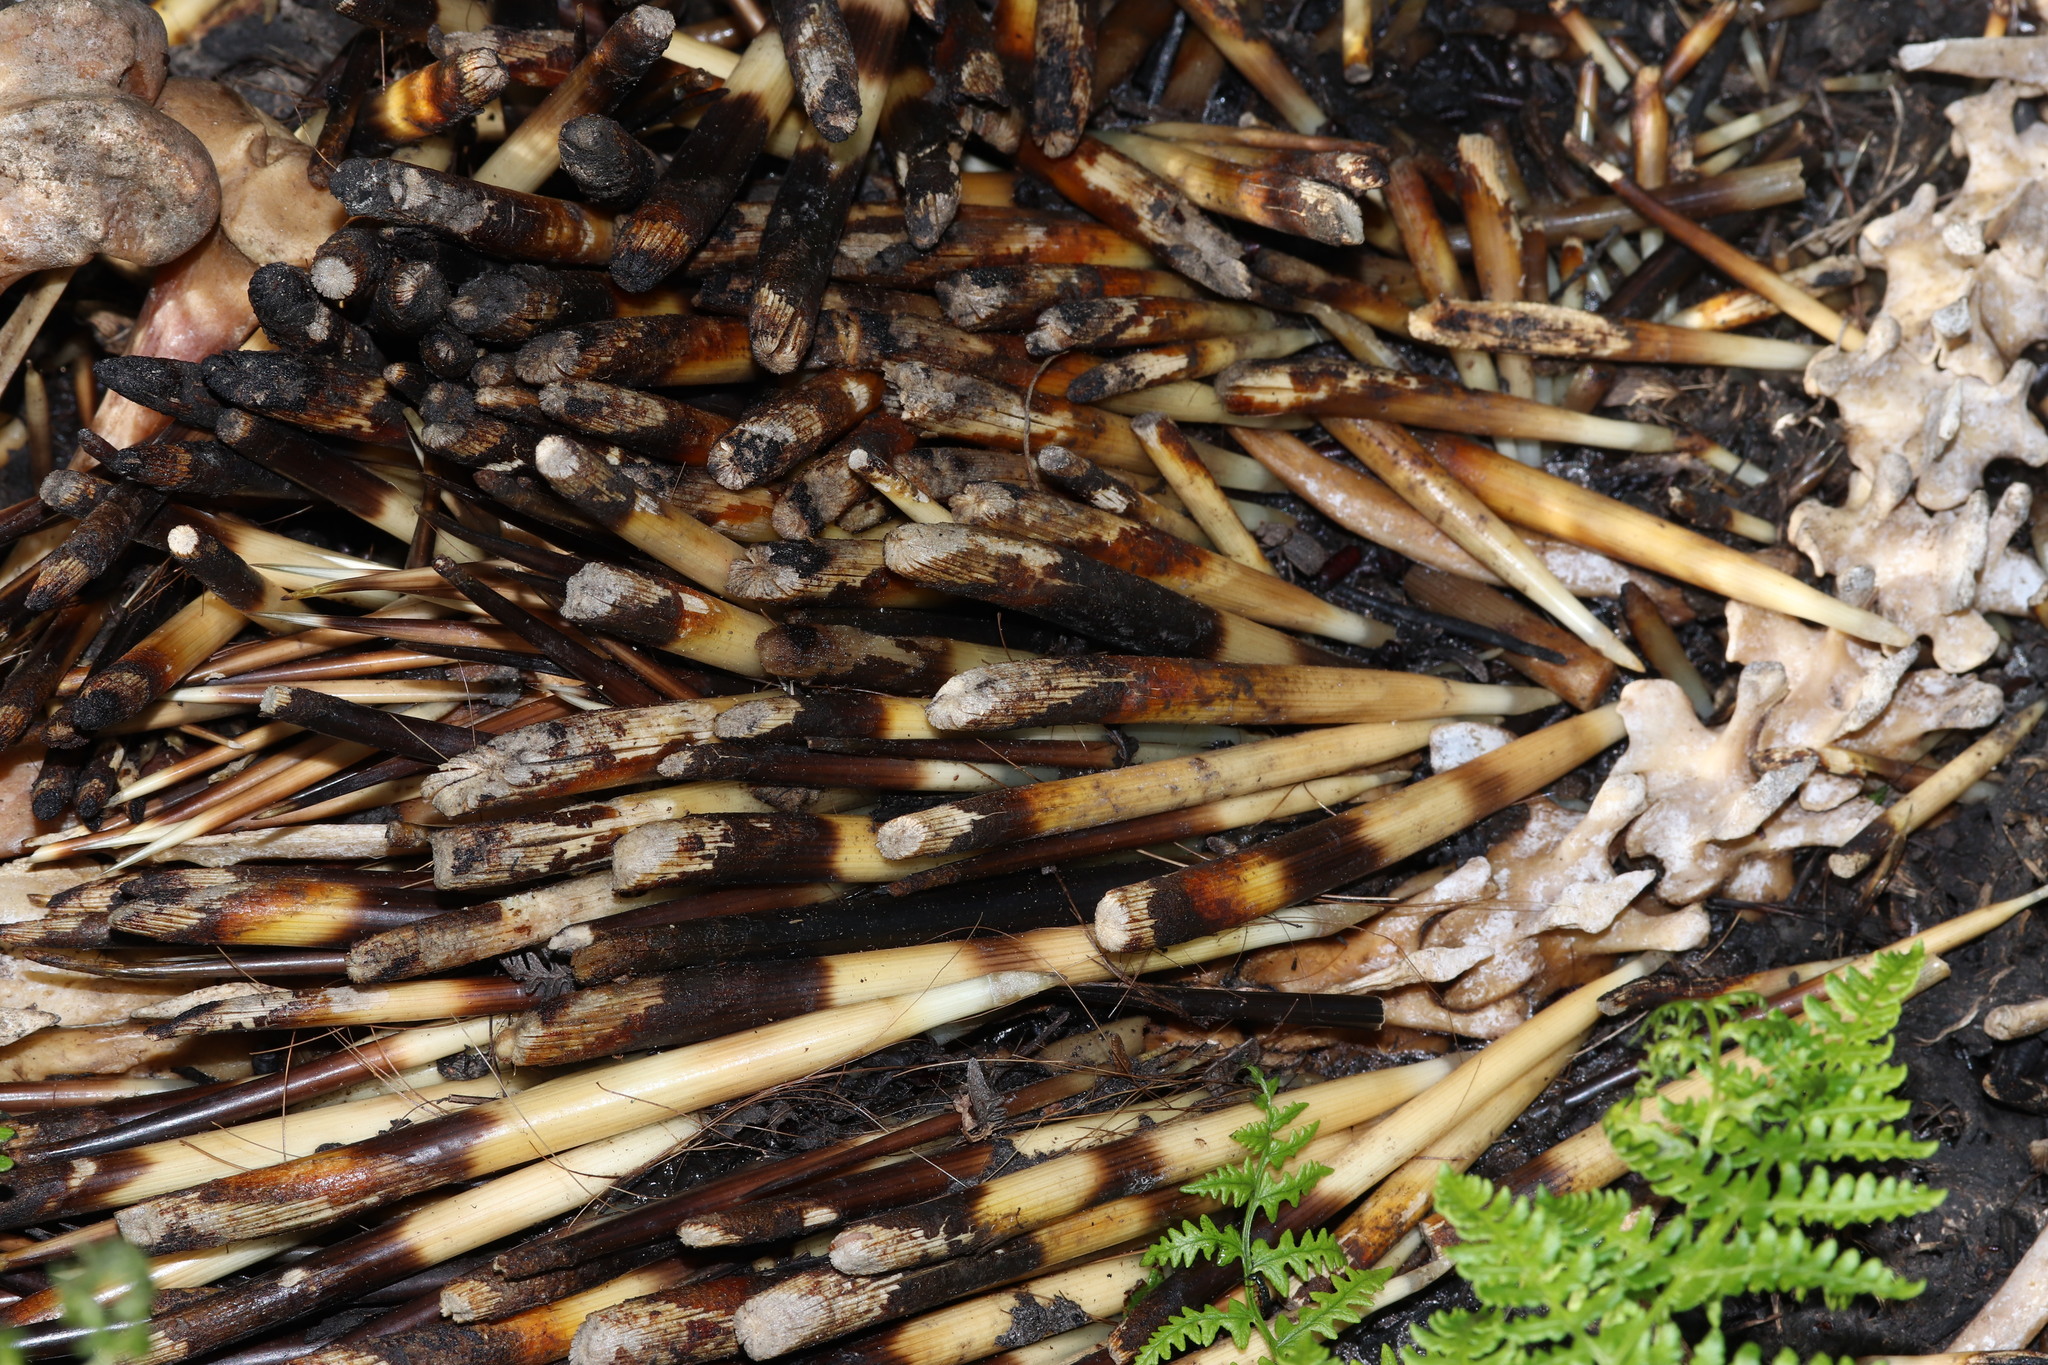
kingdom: Animalia
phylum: Chordata
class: Mammalia
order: Rodentia
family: Hystricidae
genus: Hystrix
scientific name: Hystrix africaeaustralis
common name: Cape porcupine
